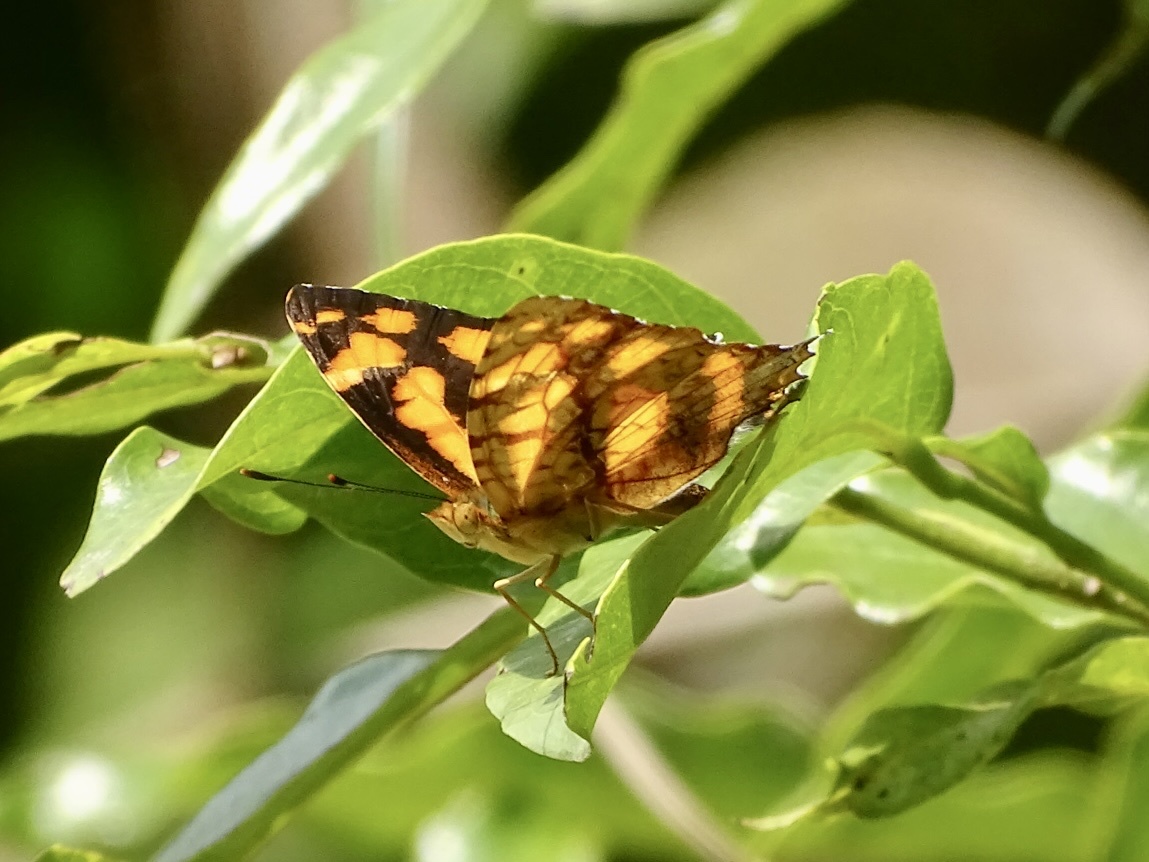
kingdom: Animalia
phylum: Arthropoda
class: Insecta
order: Lepidoptera
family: Nymphalidae
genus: Symbrenthia
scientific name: Symbrenthia hypselis
